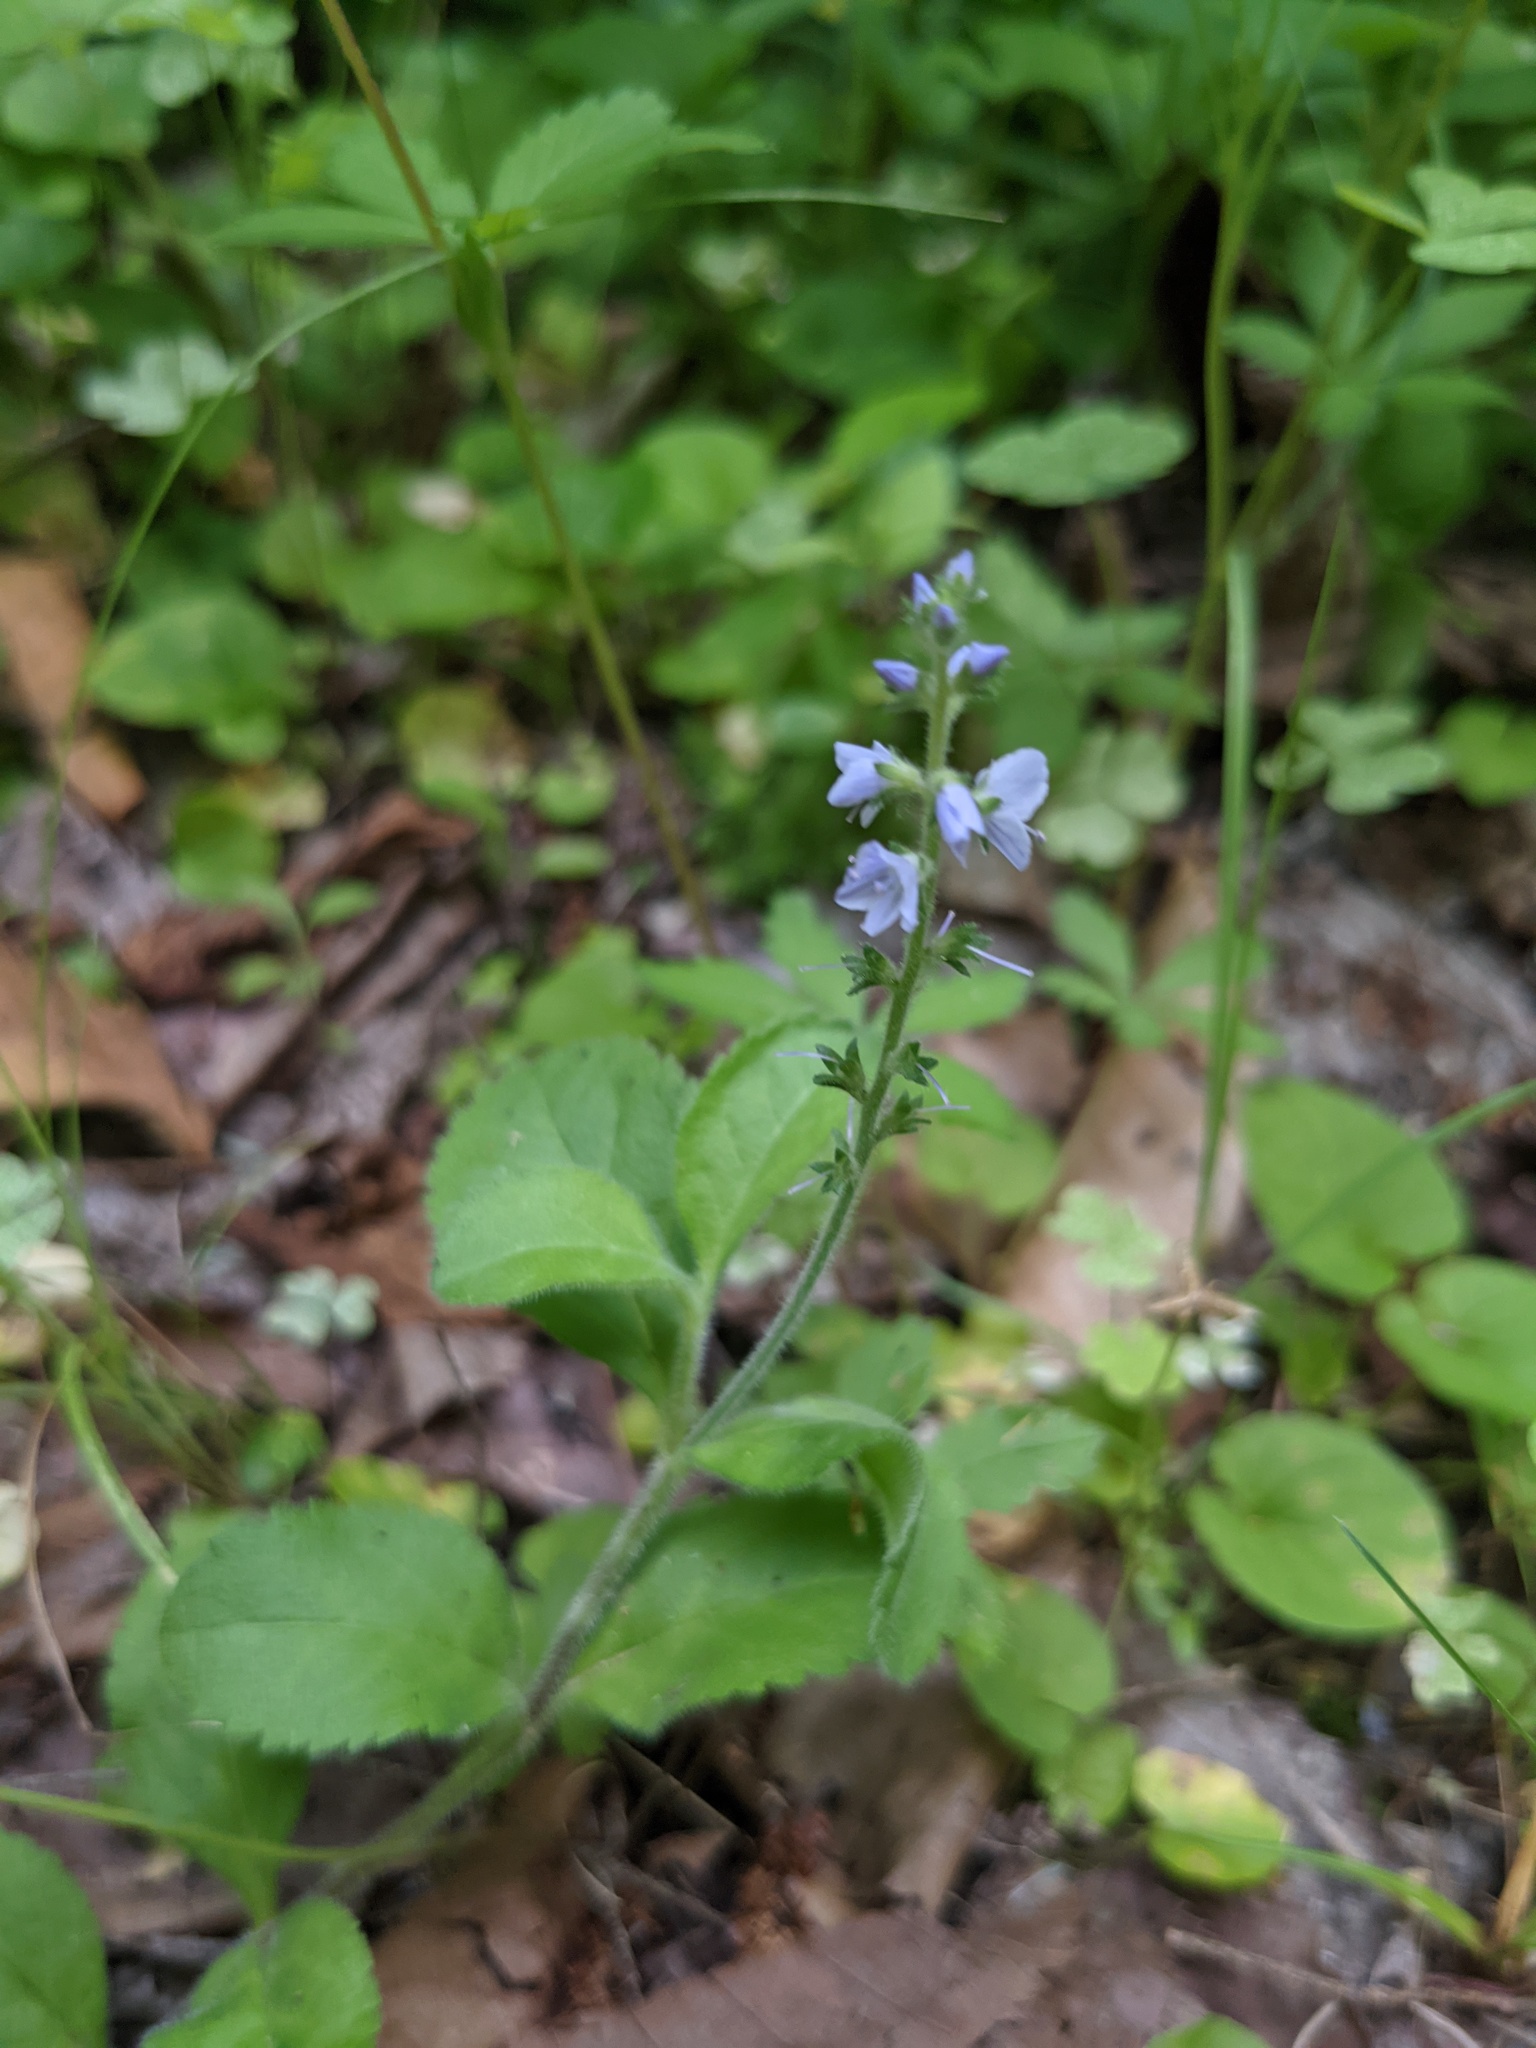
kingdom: Plantae
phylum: Tracheophyta
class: Magnoliopsida
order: Lamiales
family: Plantaginaceae
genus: Veronica
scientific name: Veronica officinalis
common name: Common speedwell
